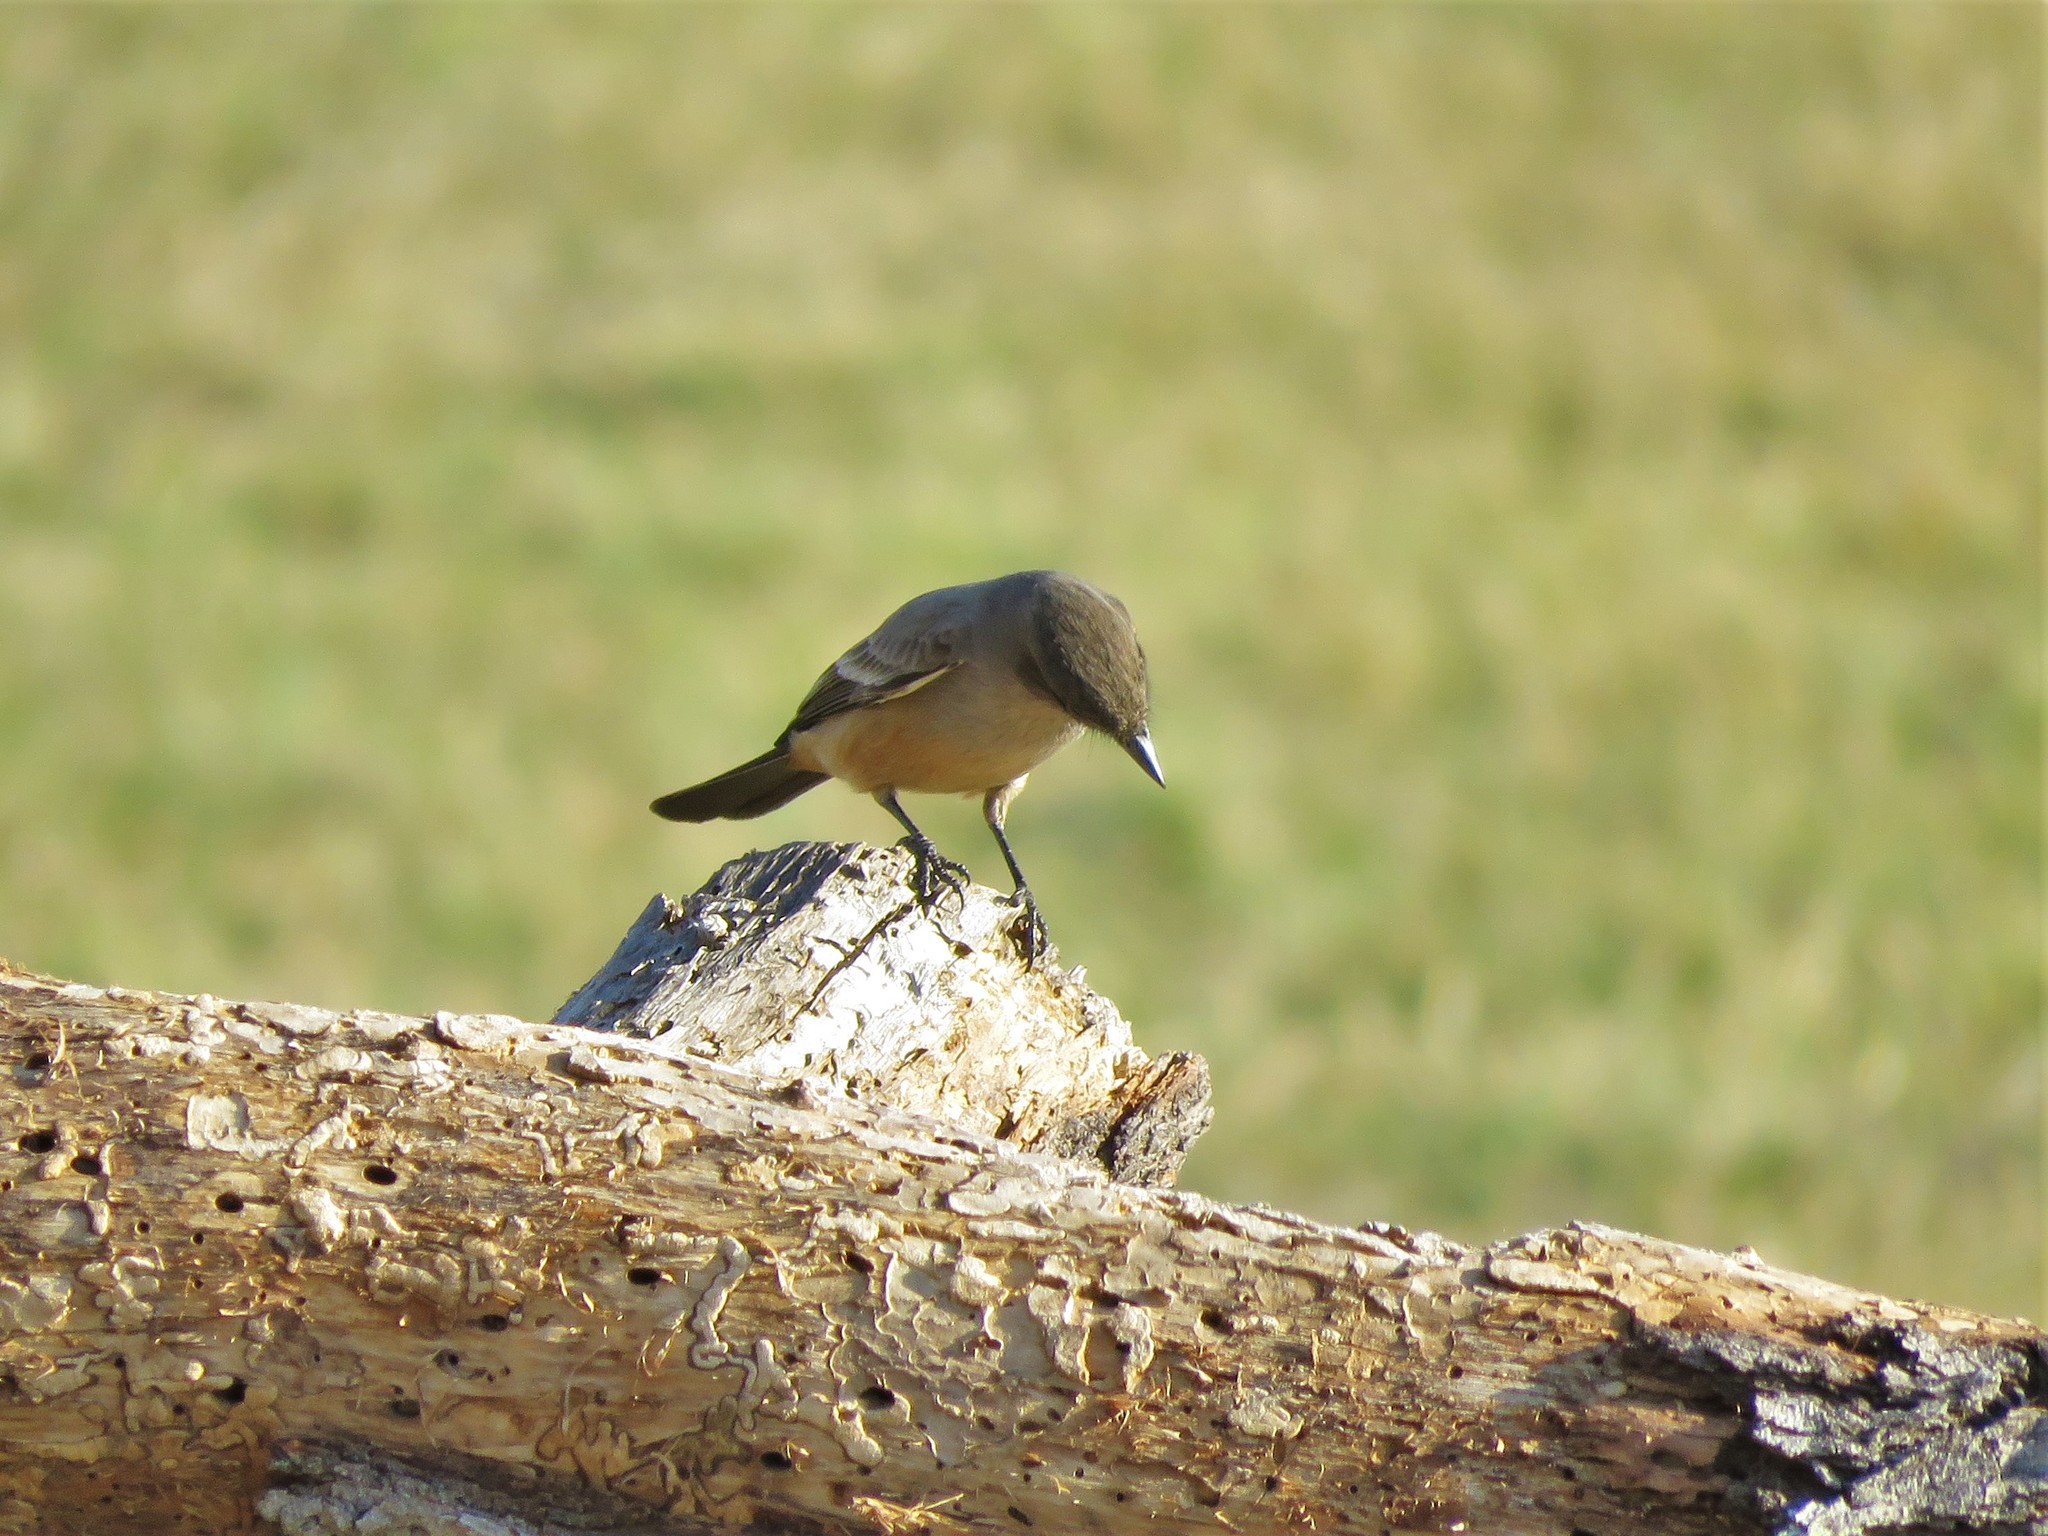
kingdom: Animalia
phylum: Chordata
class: Aves
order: Passeriformes
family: Tyrannidae
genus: Sayornis
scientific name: Sayornis saya
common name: Say's phoebe
